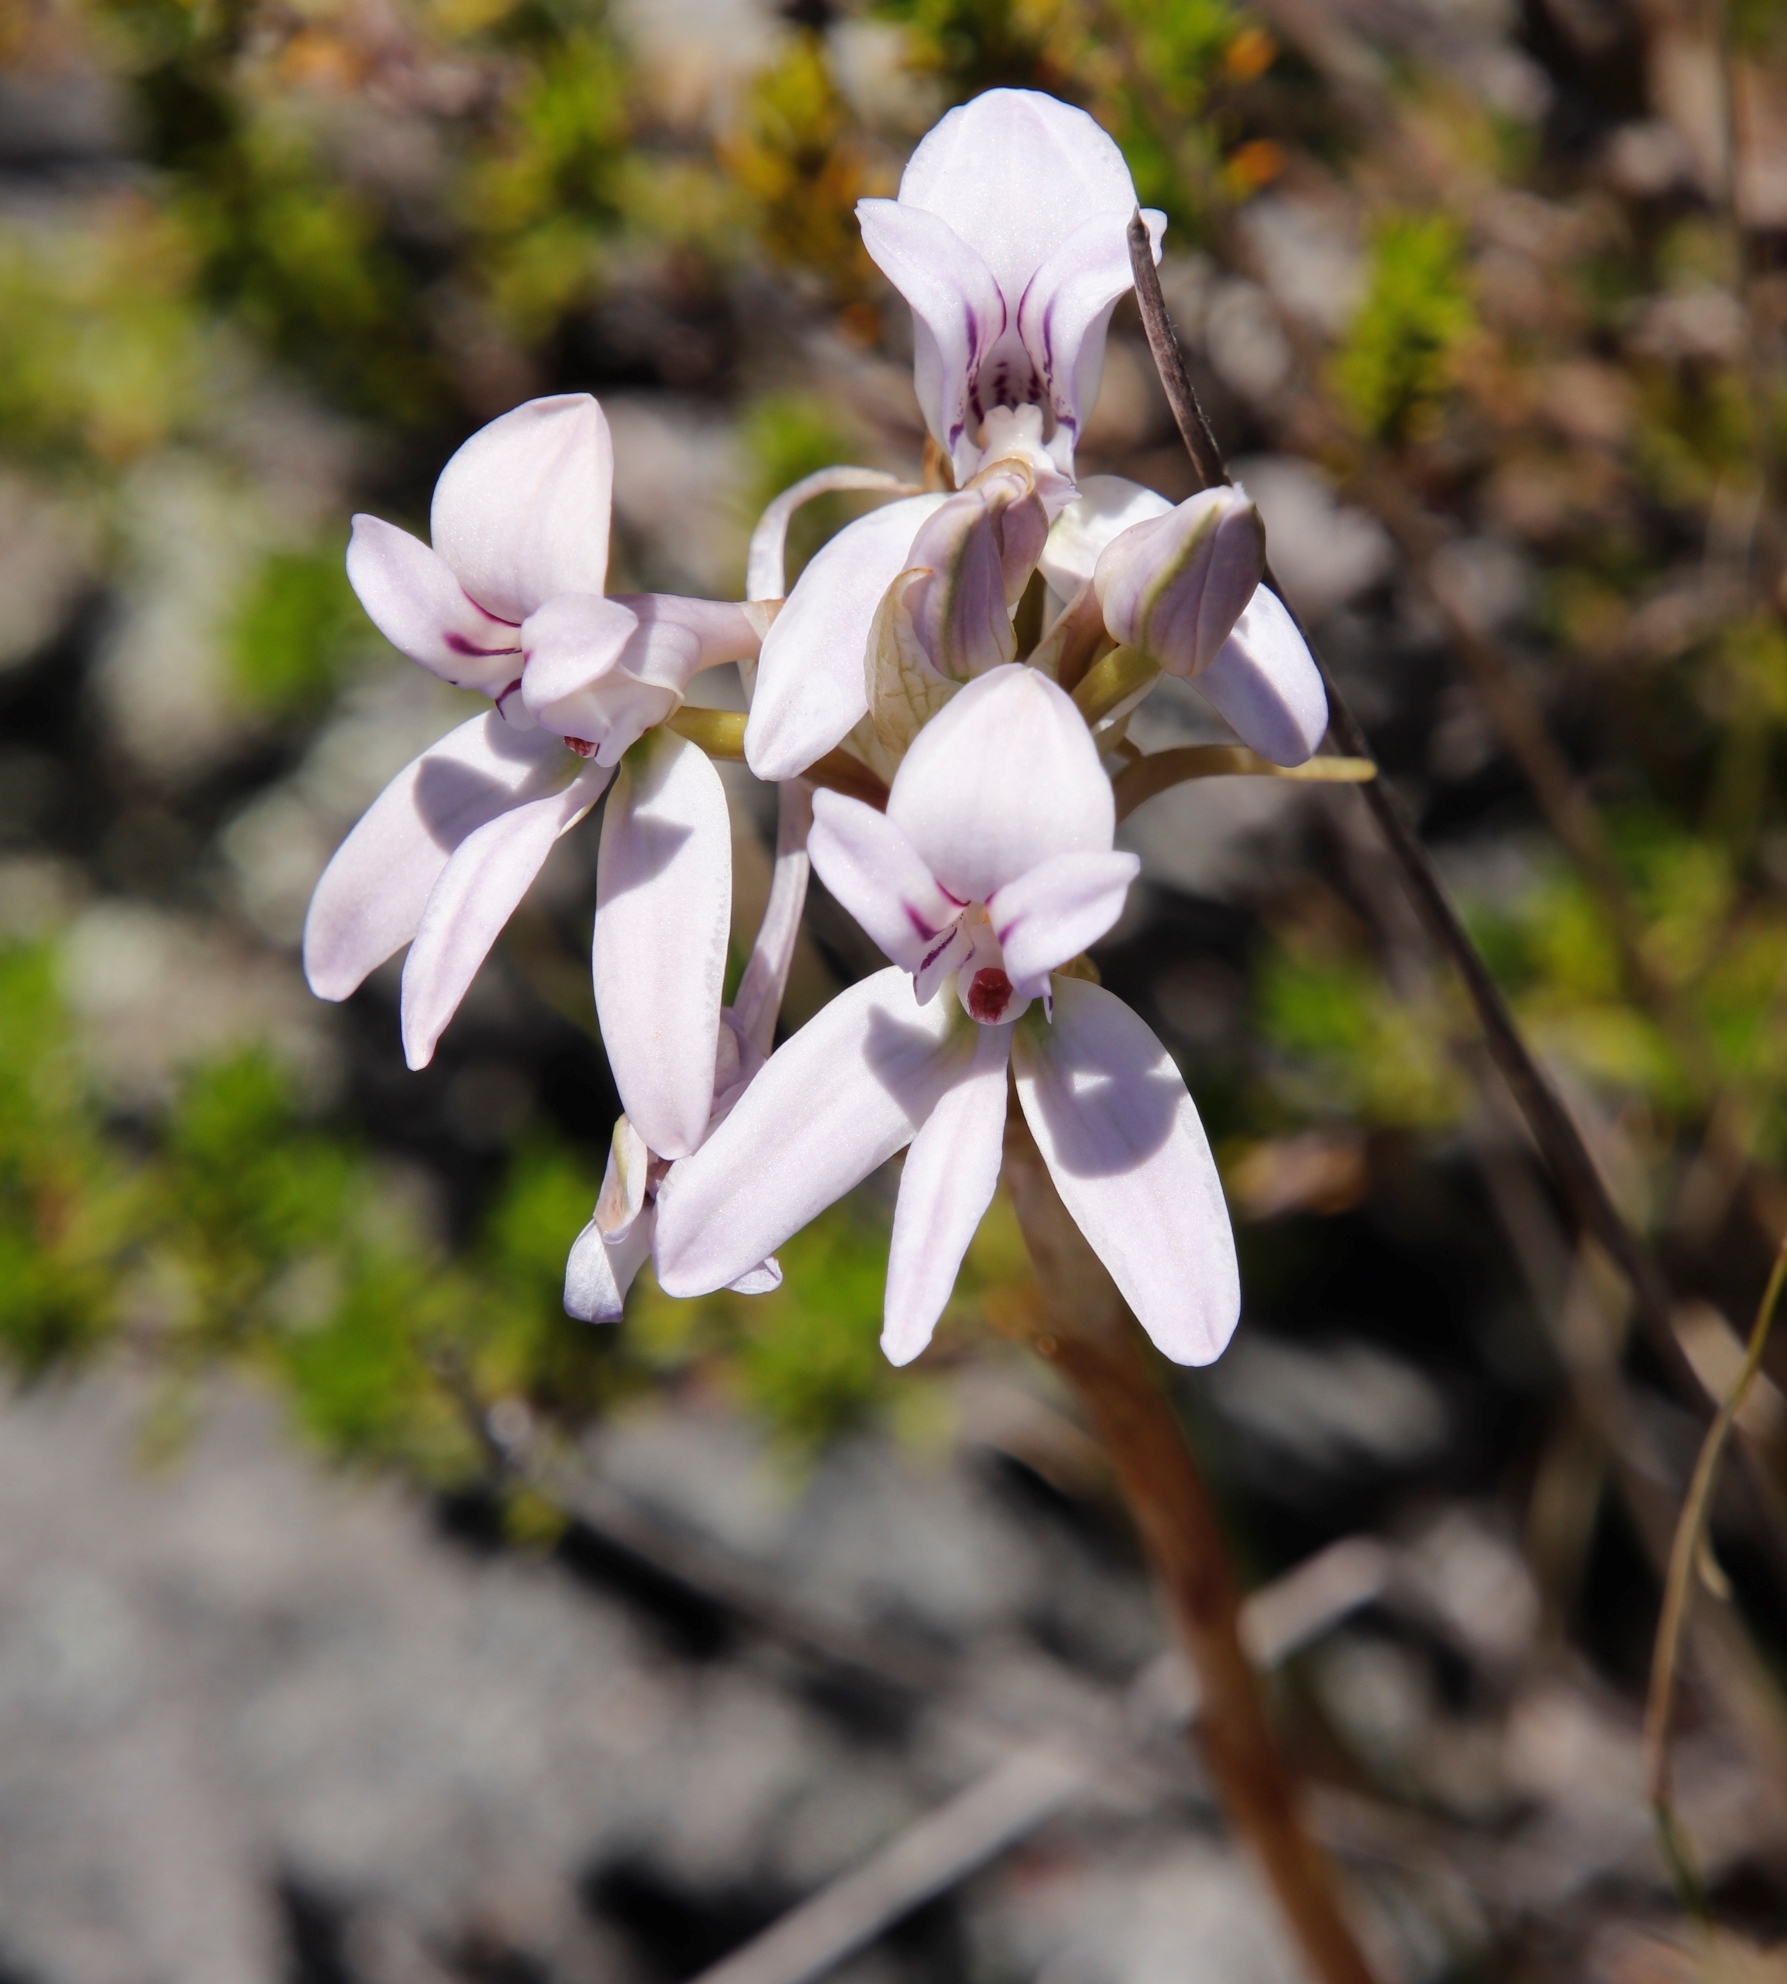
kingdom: Plantae
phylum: Tracheophyta
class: Liliopsida
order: Asparagales
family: Orchidaceae
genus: Disa
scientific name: Disa harveyana
